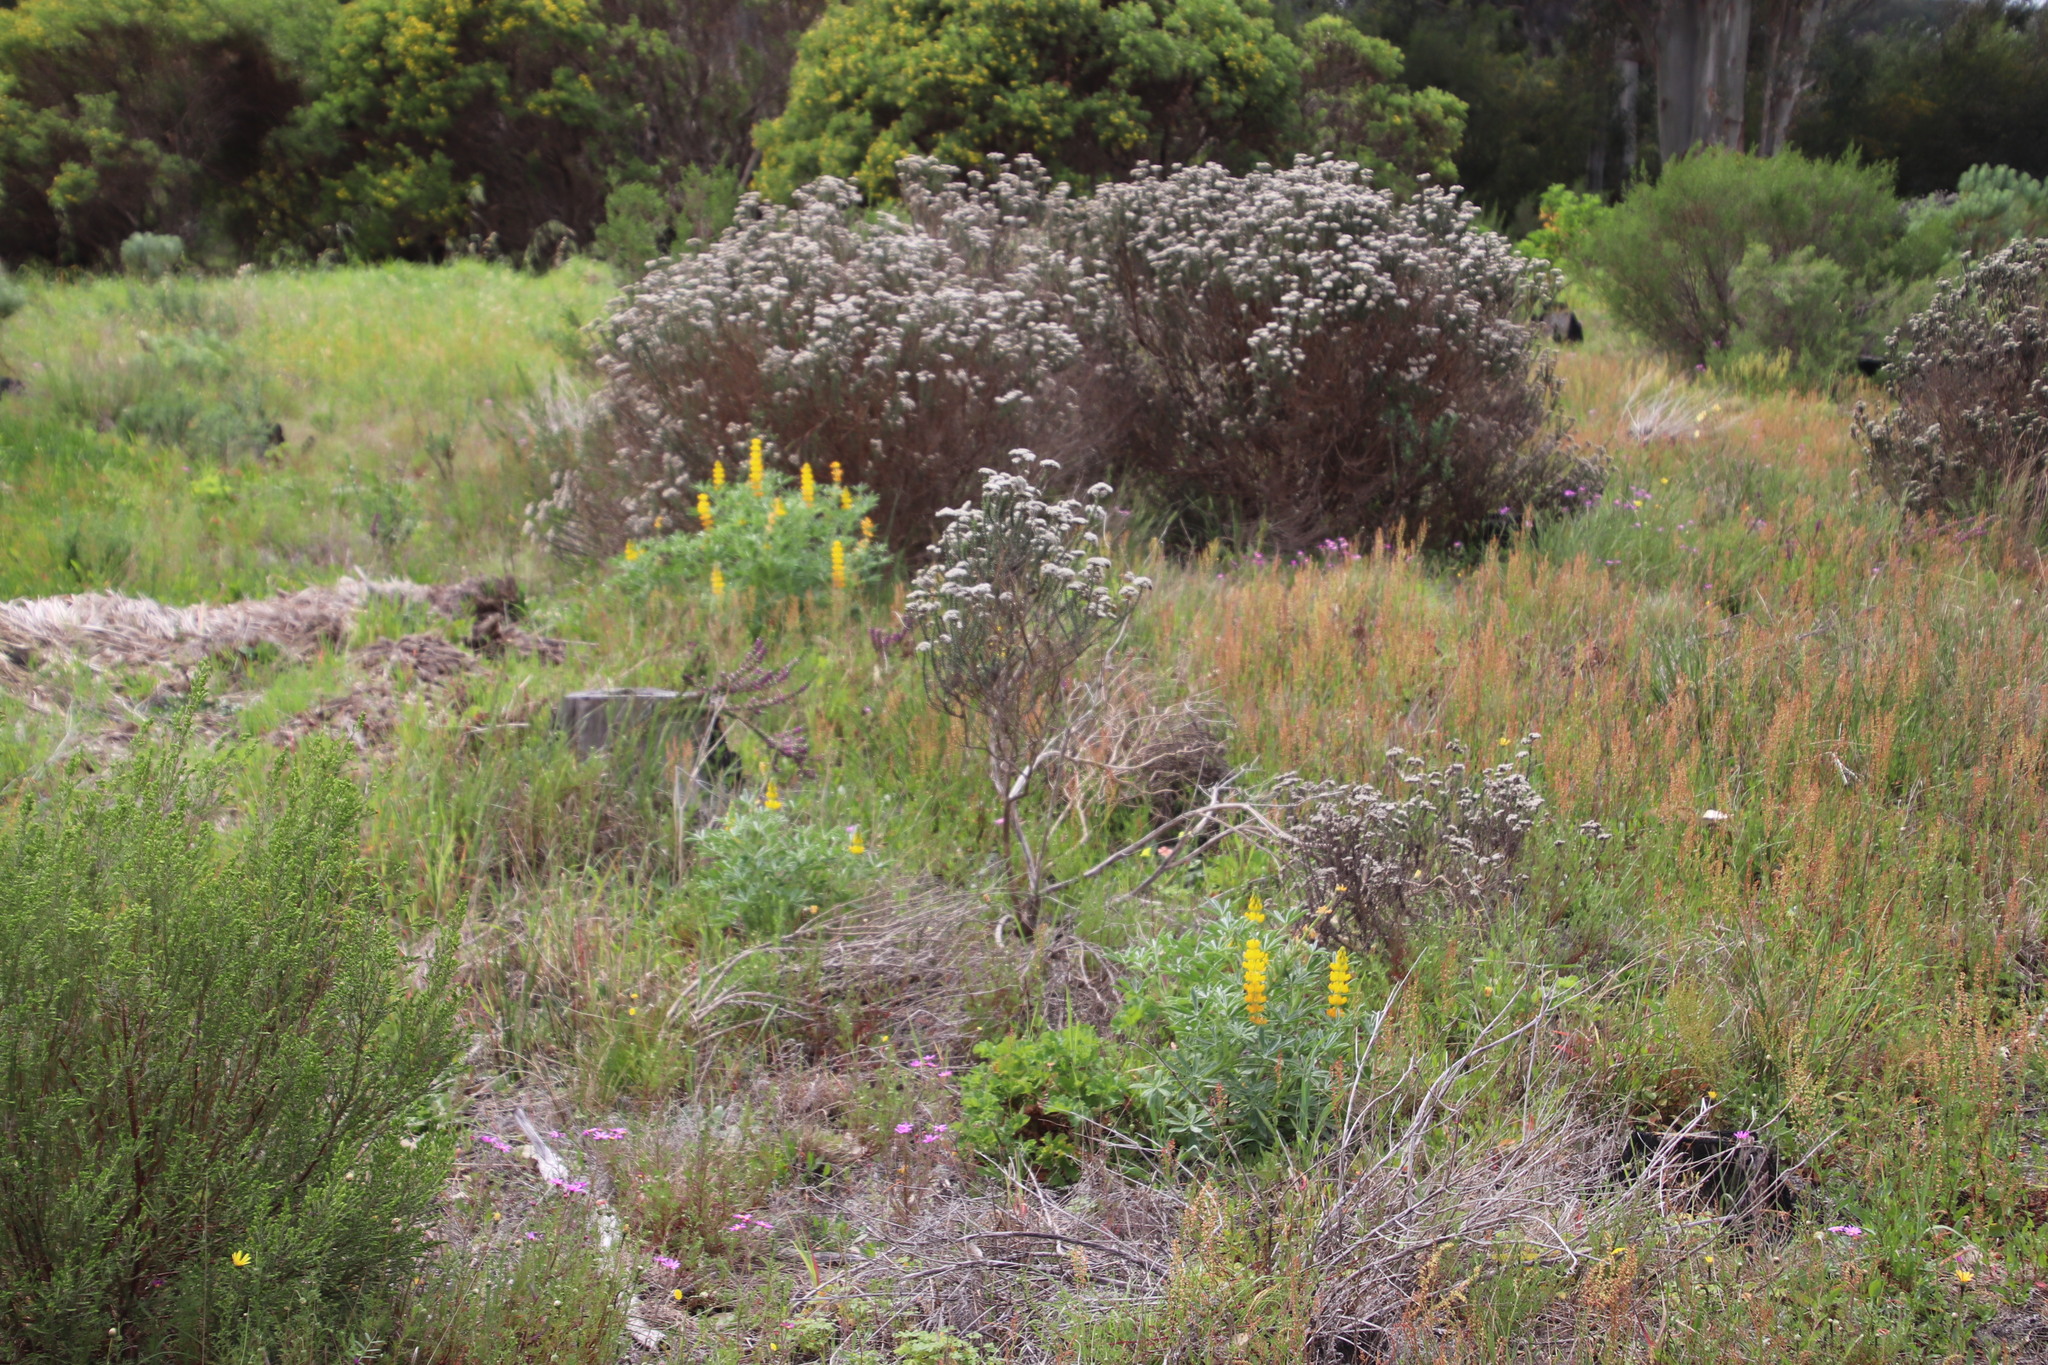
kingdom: Plantae
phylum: Tracheophyta
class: Magnoliopsida
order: Fabales
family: Fabaceae
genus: Lupinus
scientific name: Lupinus luteus
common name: European yellow lupine
